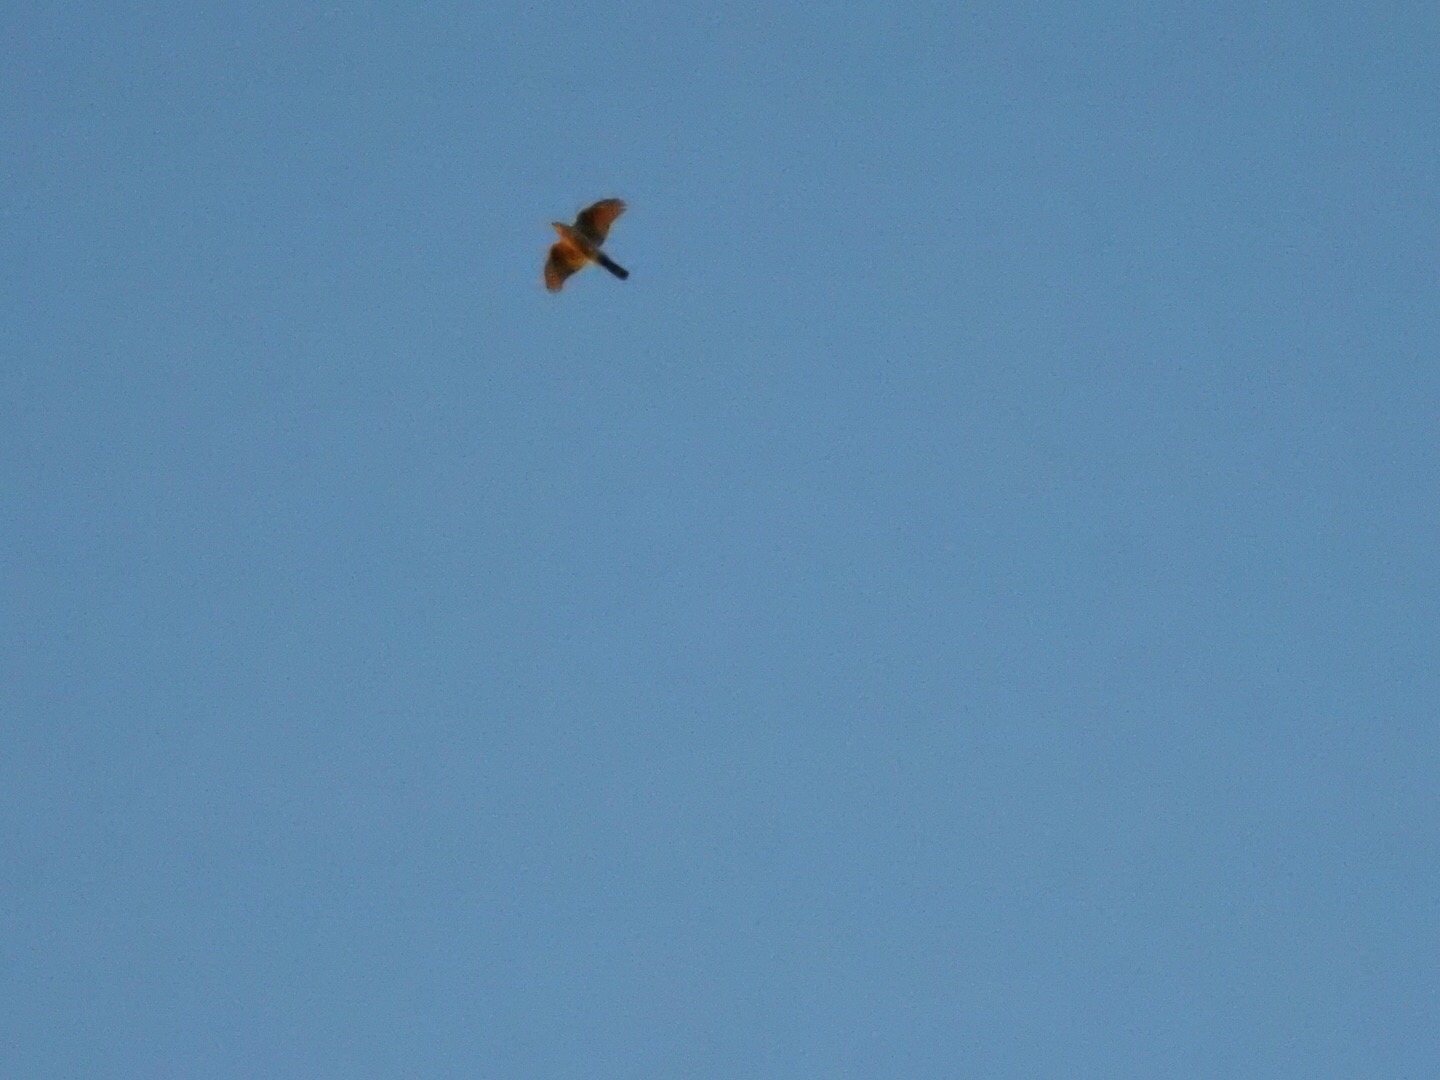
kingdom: Animalia
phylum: Chordata
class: Aves
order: Accipitriformes
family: Accipitridae
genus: Accipiter
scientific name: Accipiter striatus
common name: Sharp-shinned hawk
